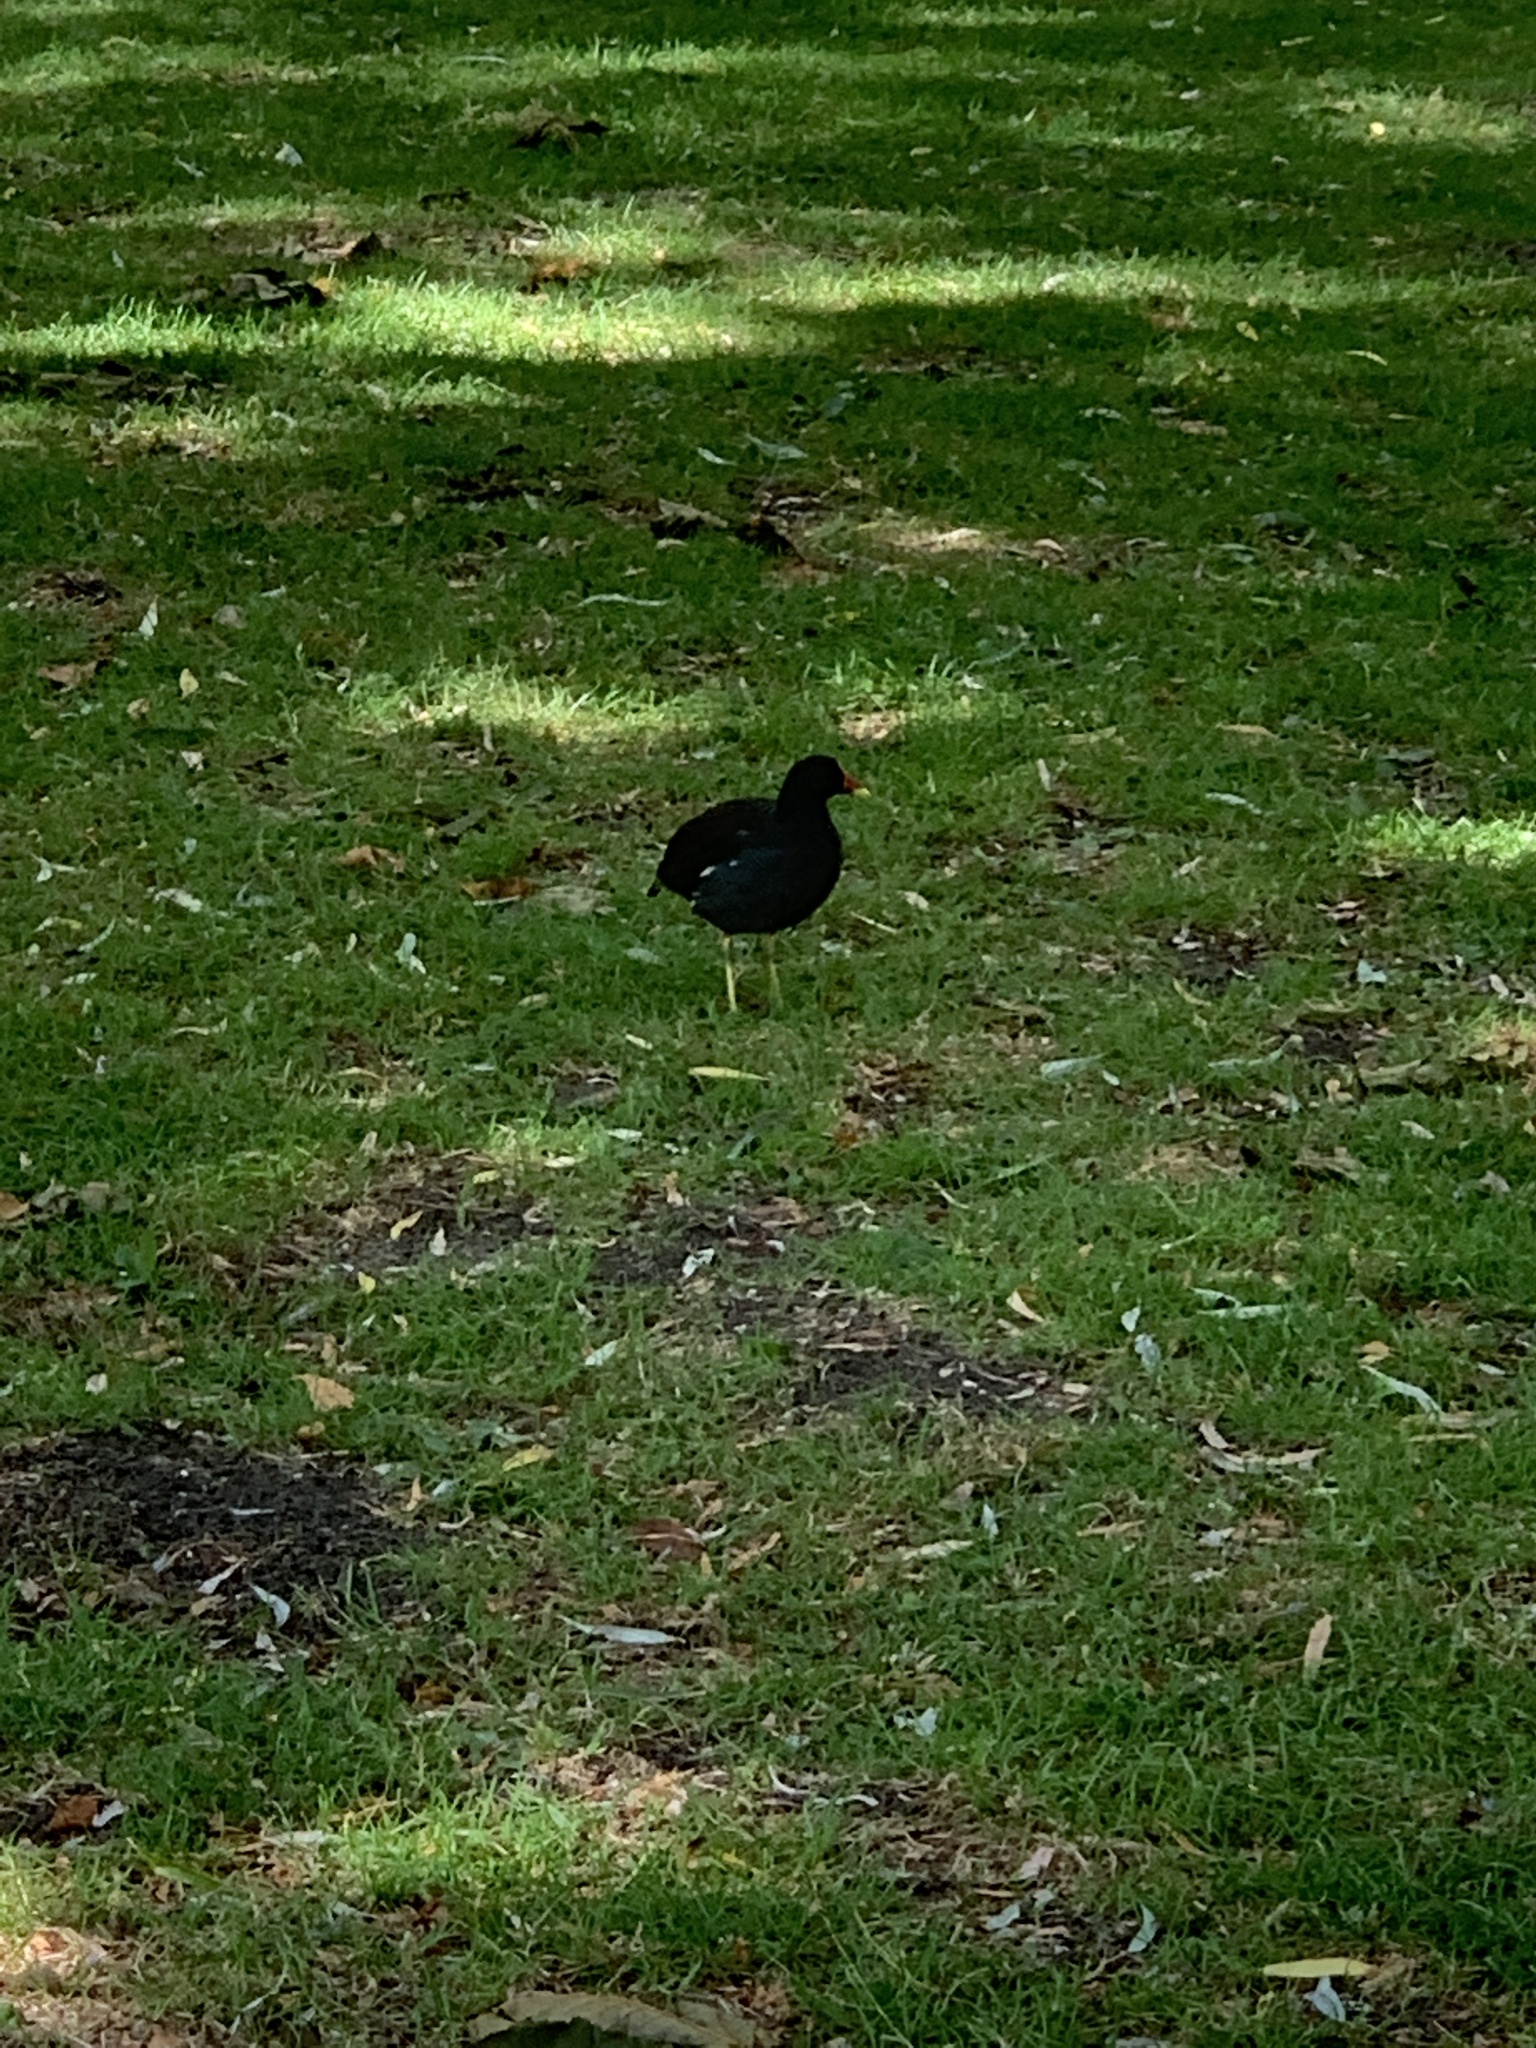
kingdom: Animalia
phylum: Chordata
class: Aves
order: Gruiformes
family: Rallidae
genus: Gallinula
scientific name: Gallinula chloropus
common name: Common moorhen
